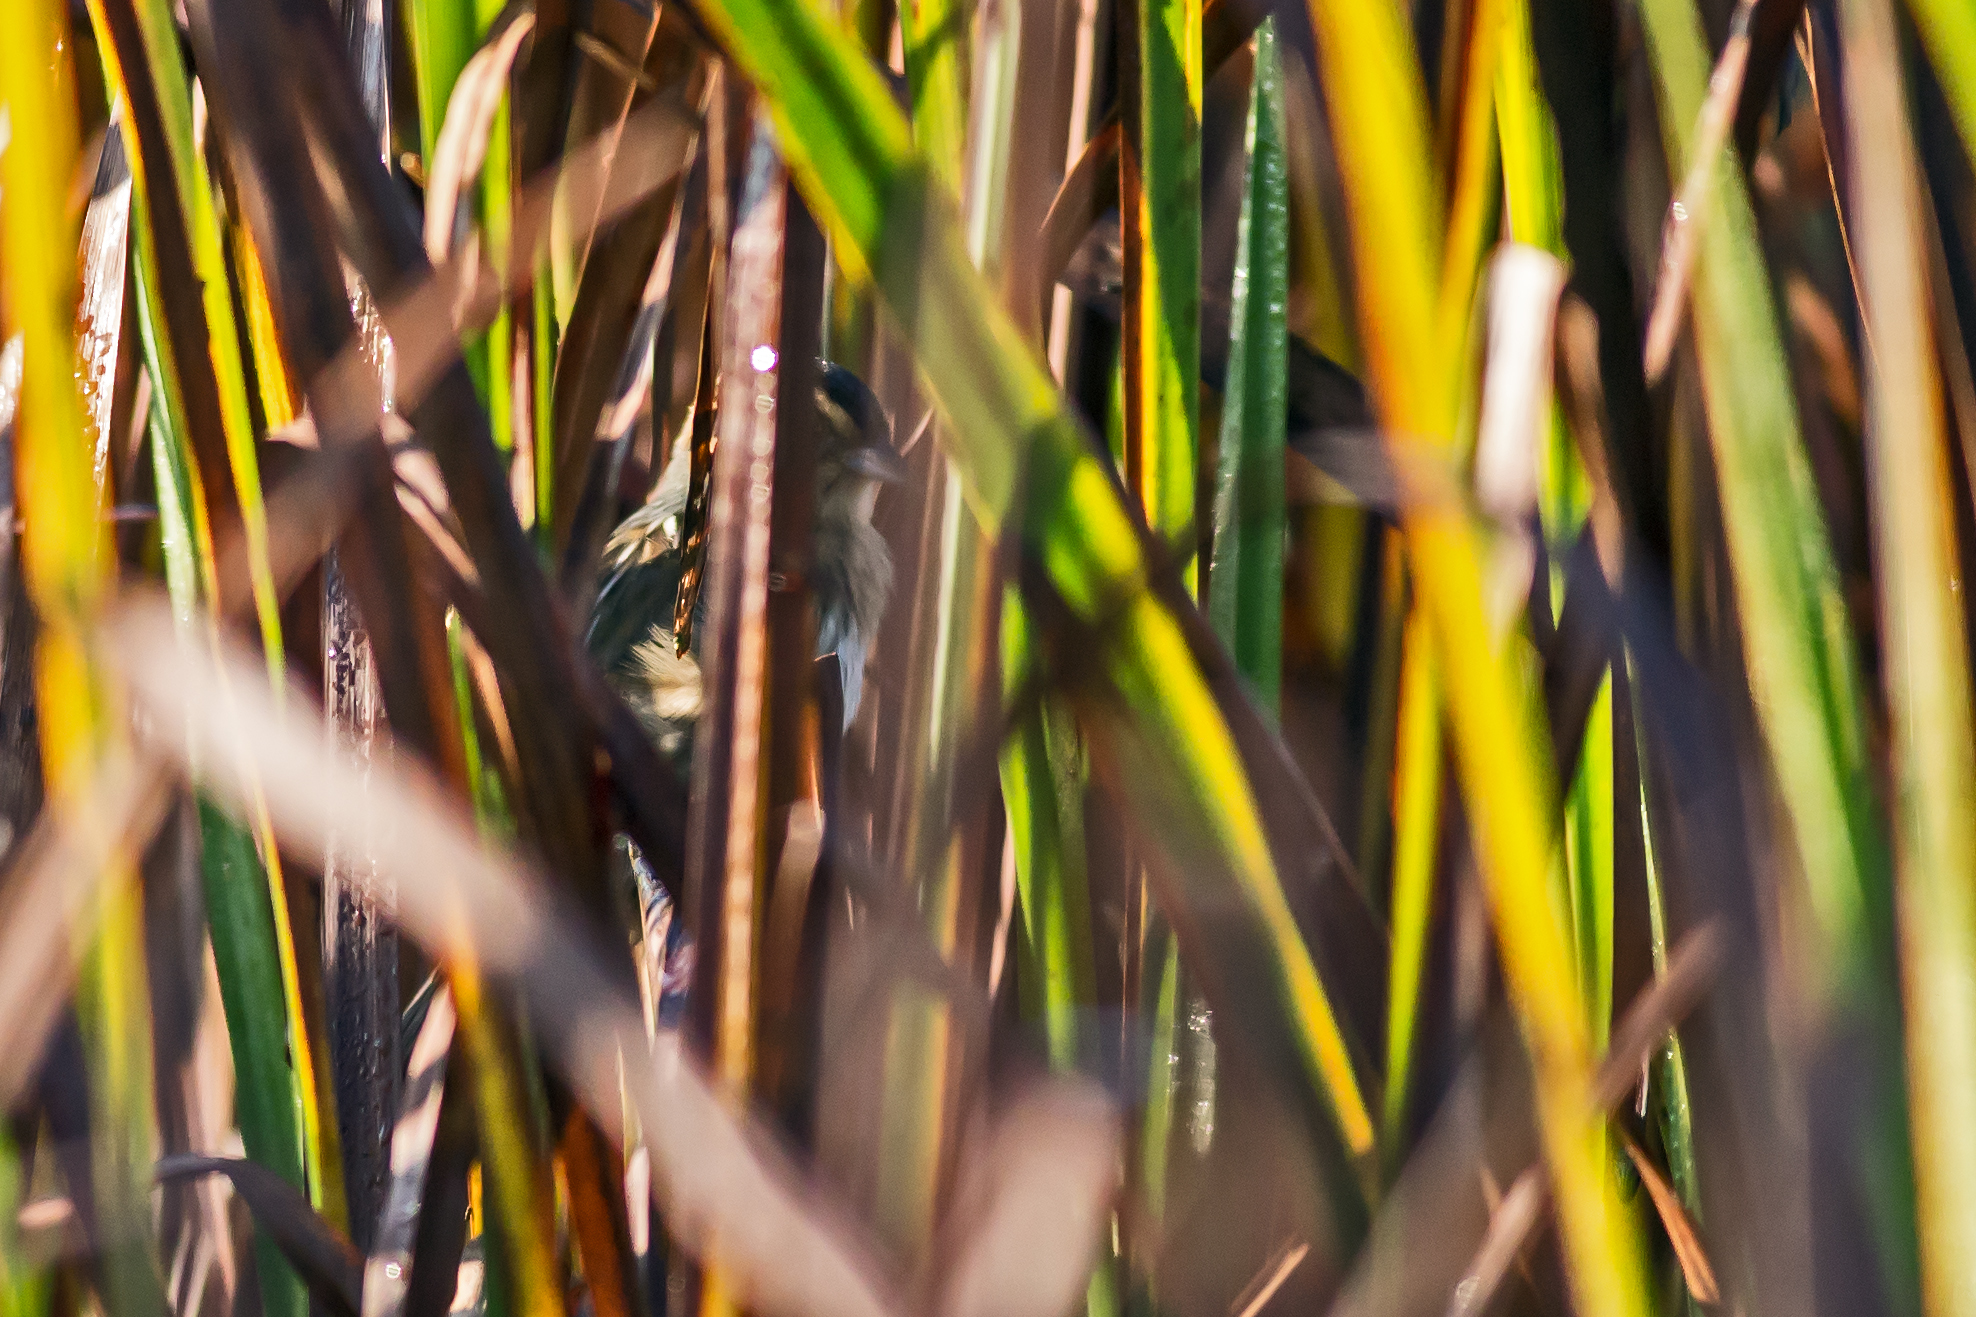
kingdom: Animalia
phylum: Chordata
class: Aves
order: Passeriformes
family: Passerellidae
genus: Ammospiza
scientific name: Ammospiza nelsoni
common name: Nelson's sparrow
